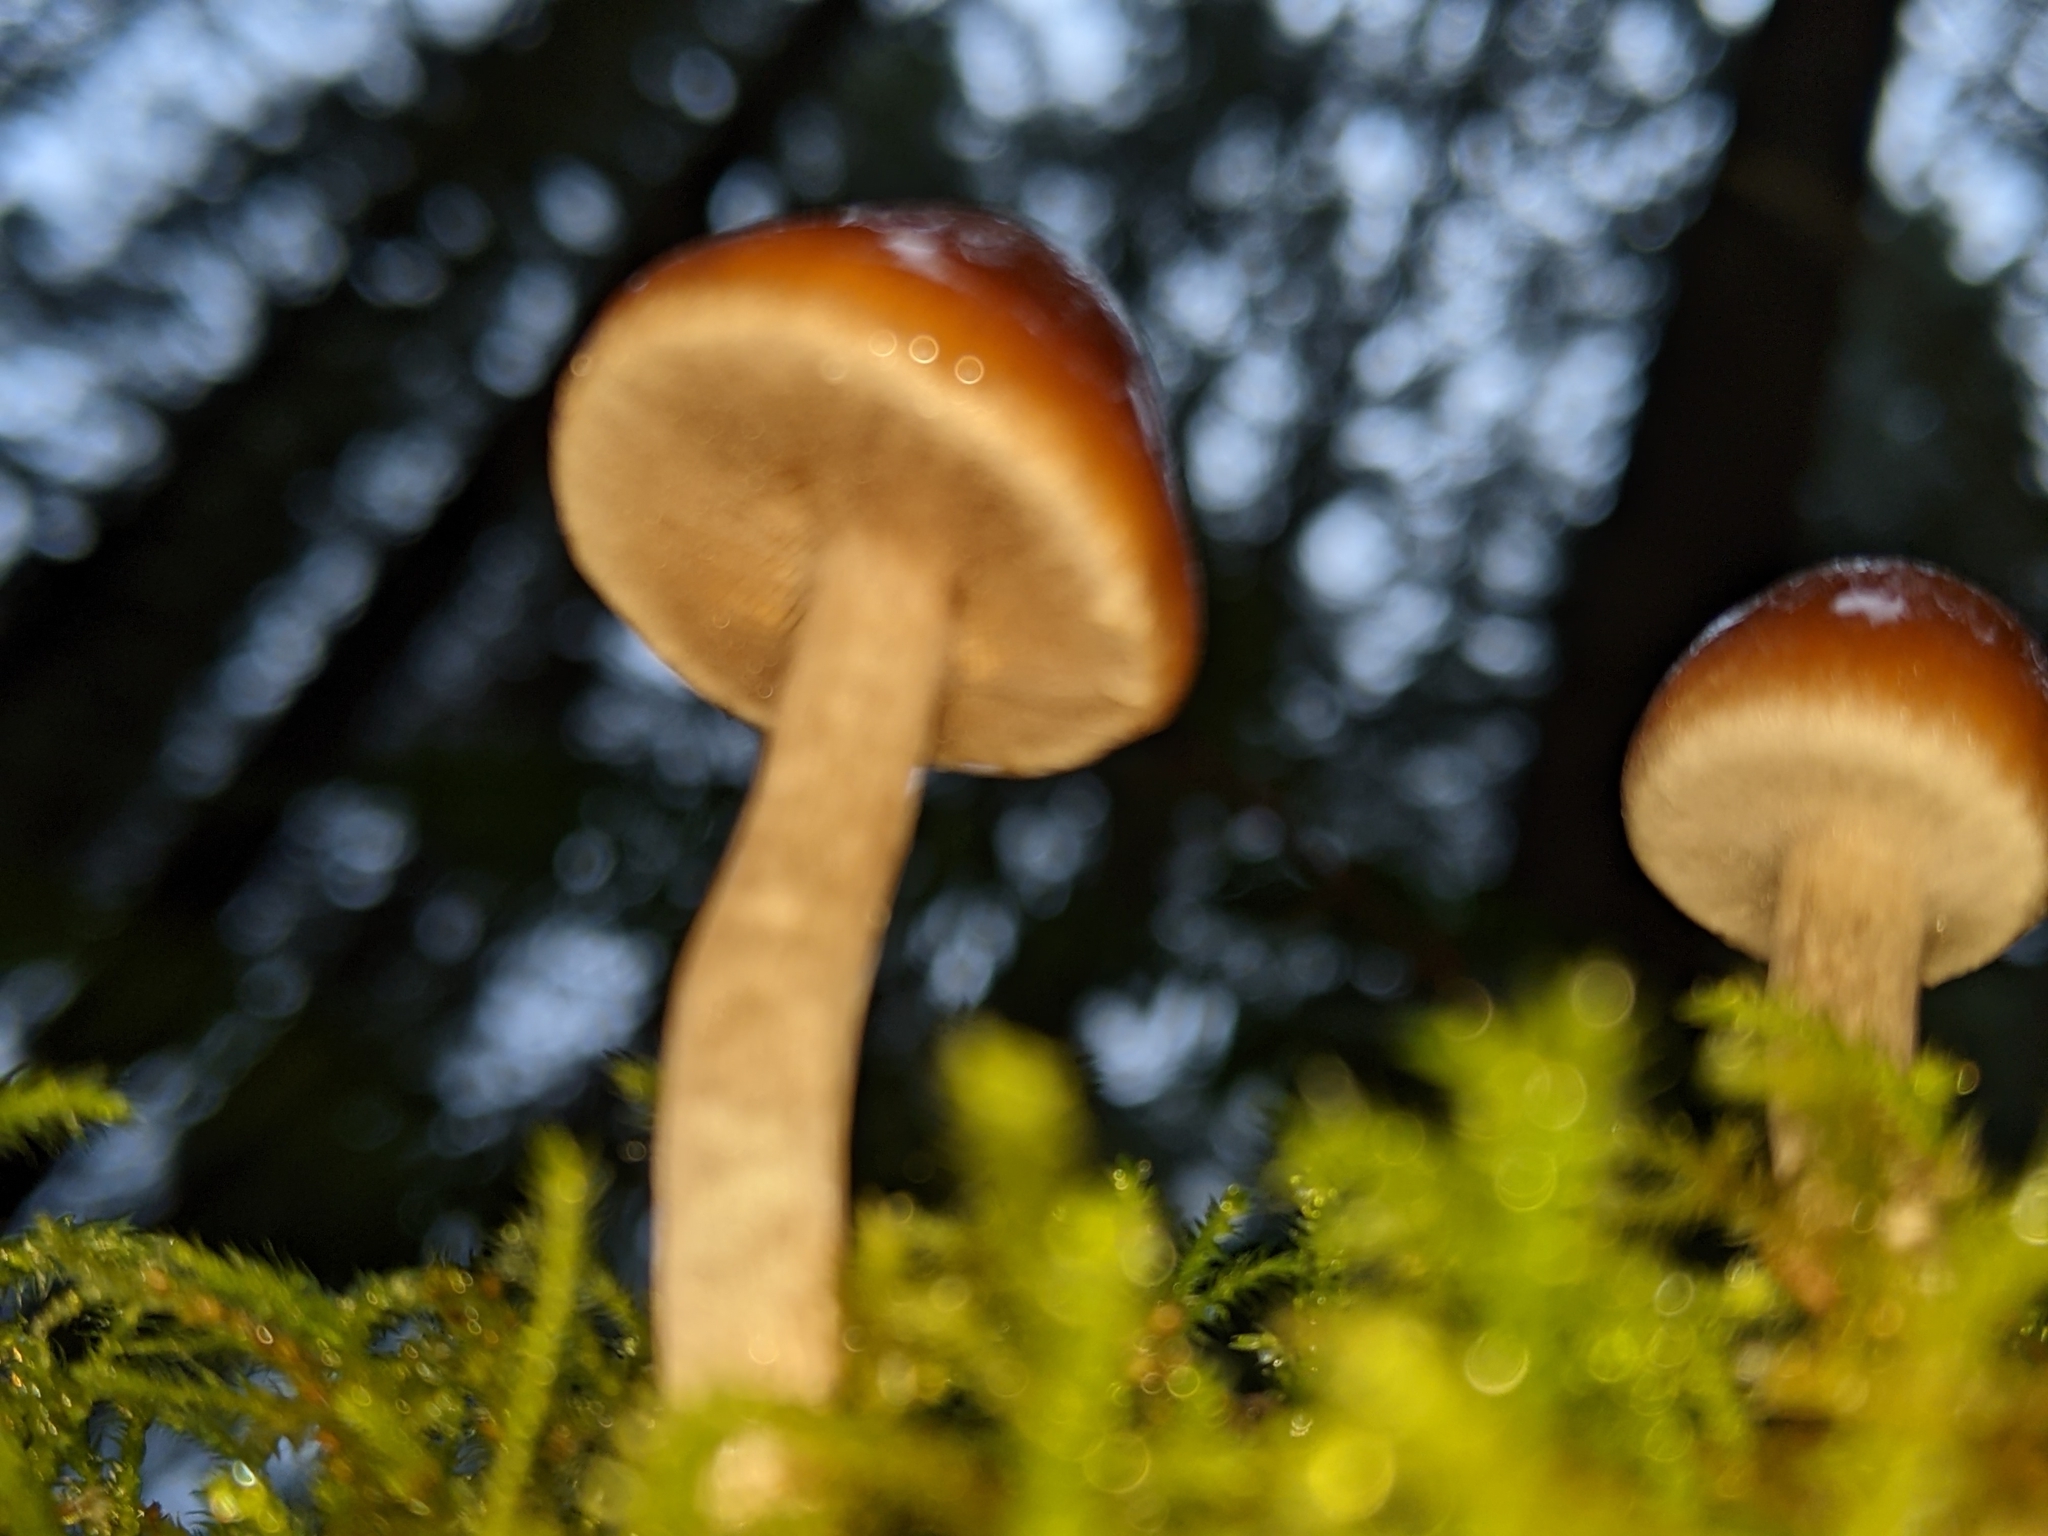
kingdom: Fungi
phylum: Basidiomycota
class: Agaricomycetes
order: Agaricales
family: Hymenogastraceae
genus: Galerina
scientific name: Galerina marginata
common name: Funeral bell
